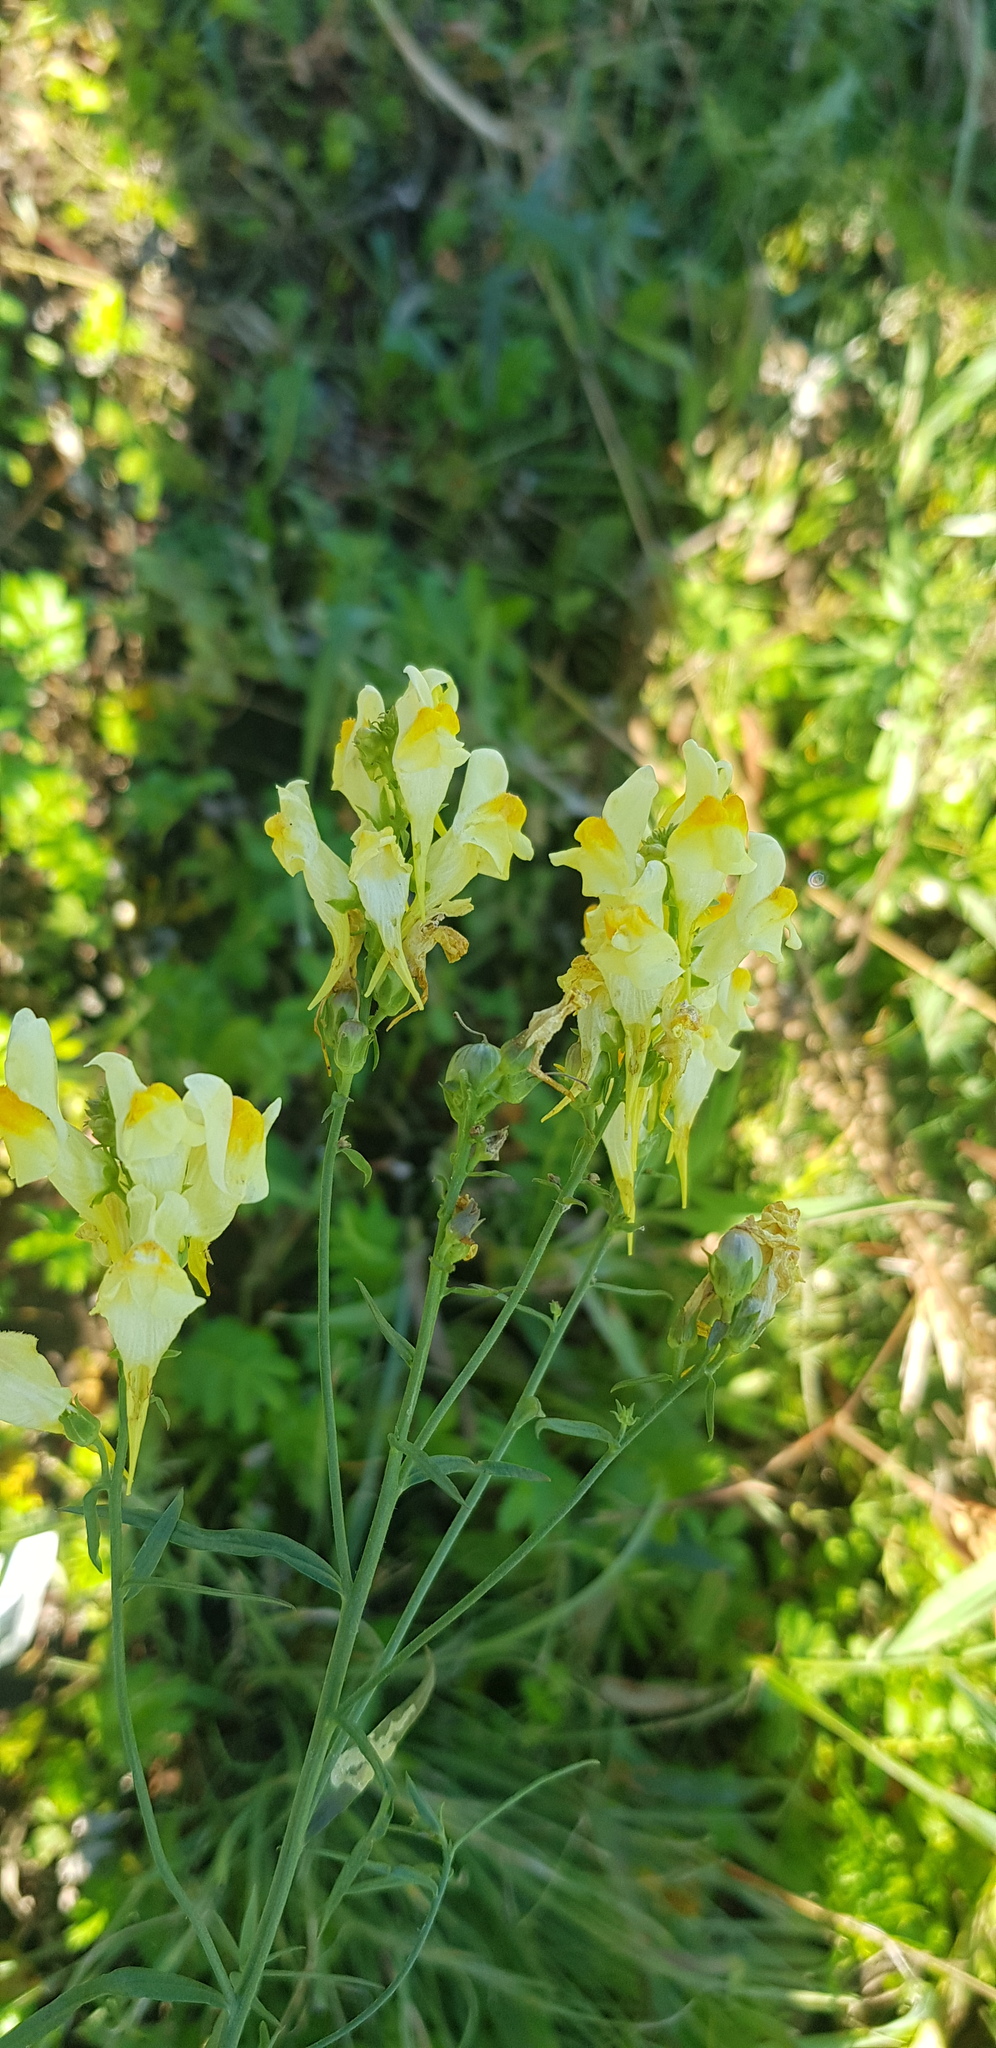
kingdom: Plantae
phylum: Tracheophyta
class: Magnoliopsida
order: Lamiales
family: Plantaginaceae
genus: Linaria
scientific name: Linaria buriatica
